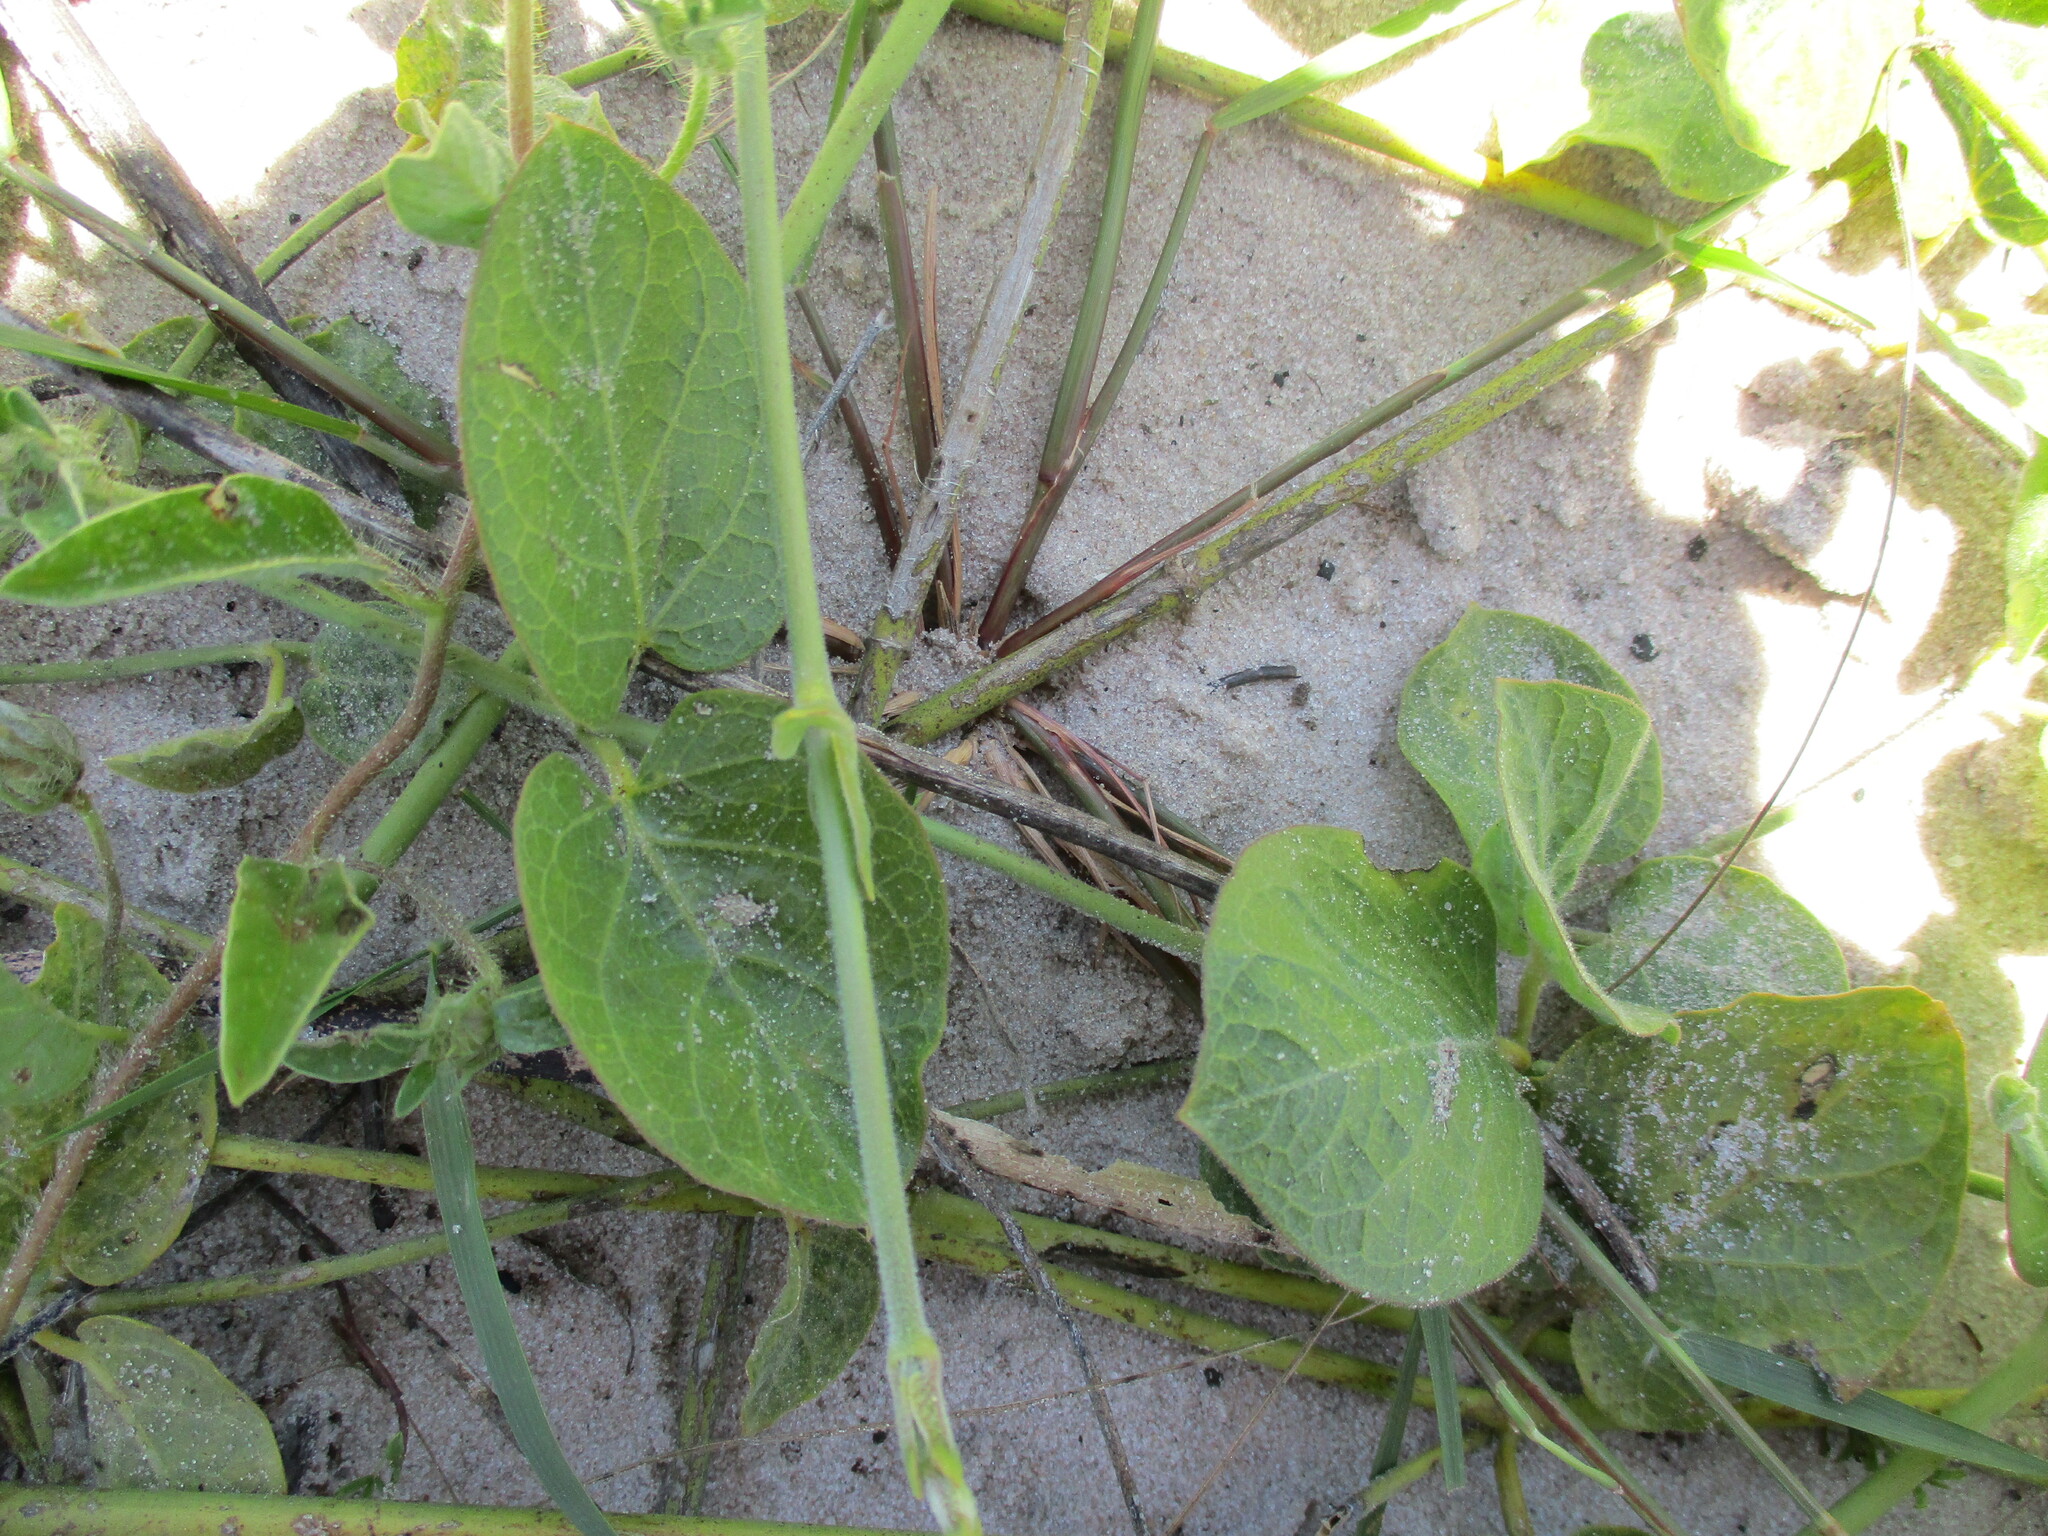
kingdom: Plantae
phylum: Tracheophyta
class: Magnoliopsida
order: Gentianales
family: Apocynaceae
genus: Orthanthera
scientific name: Orthanthera jasminiflora
